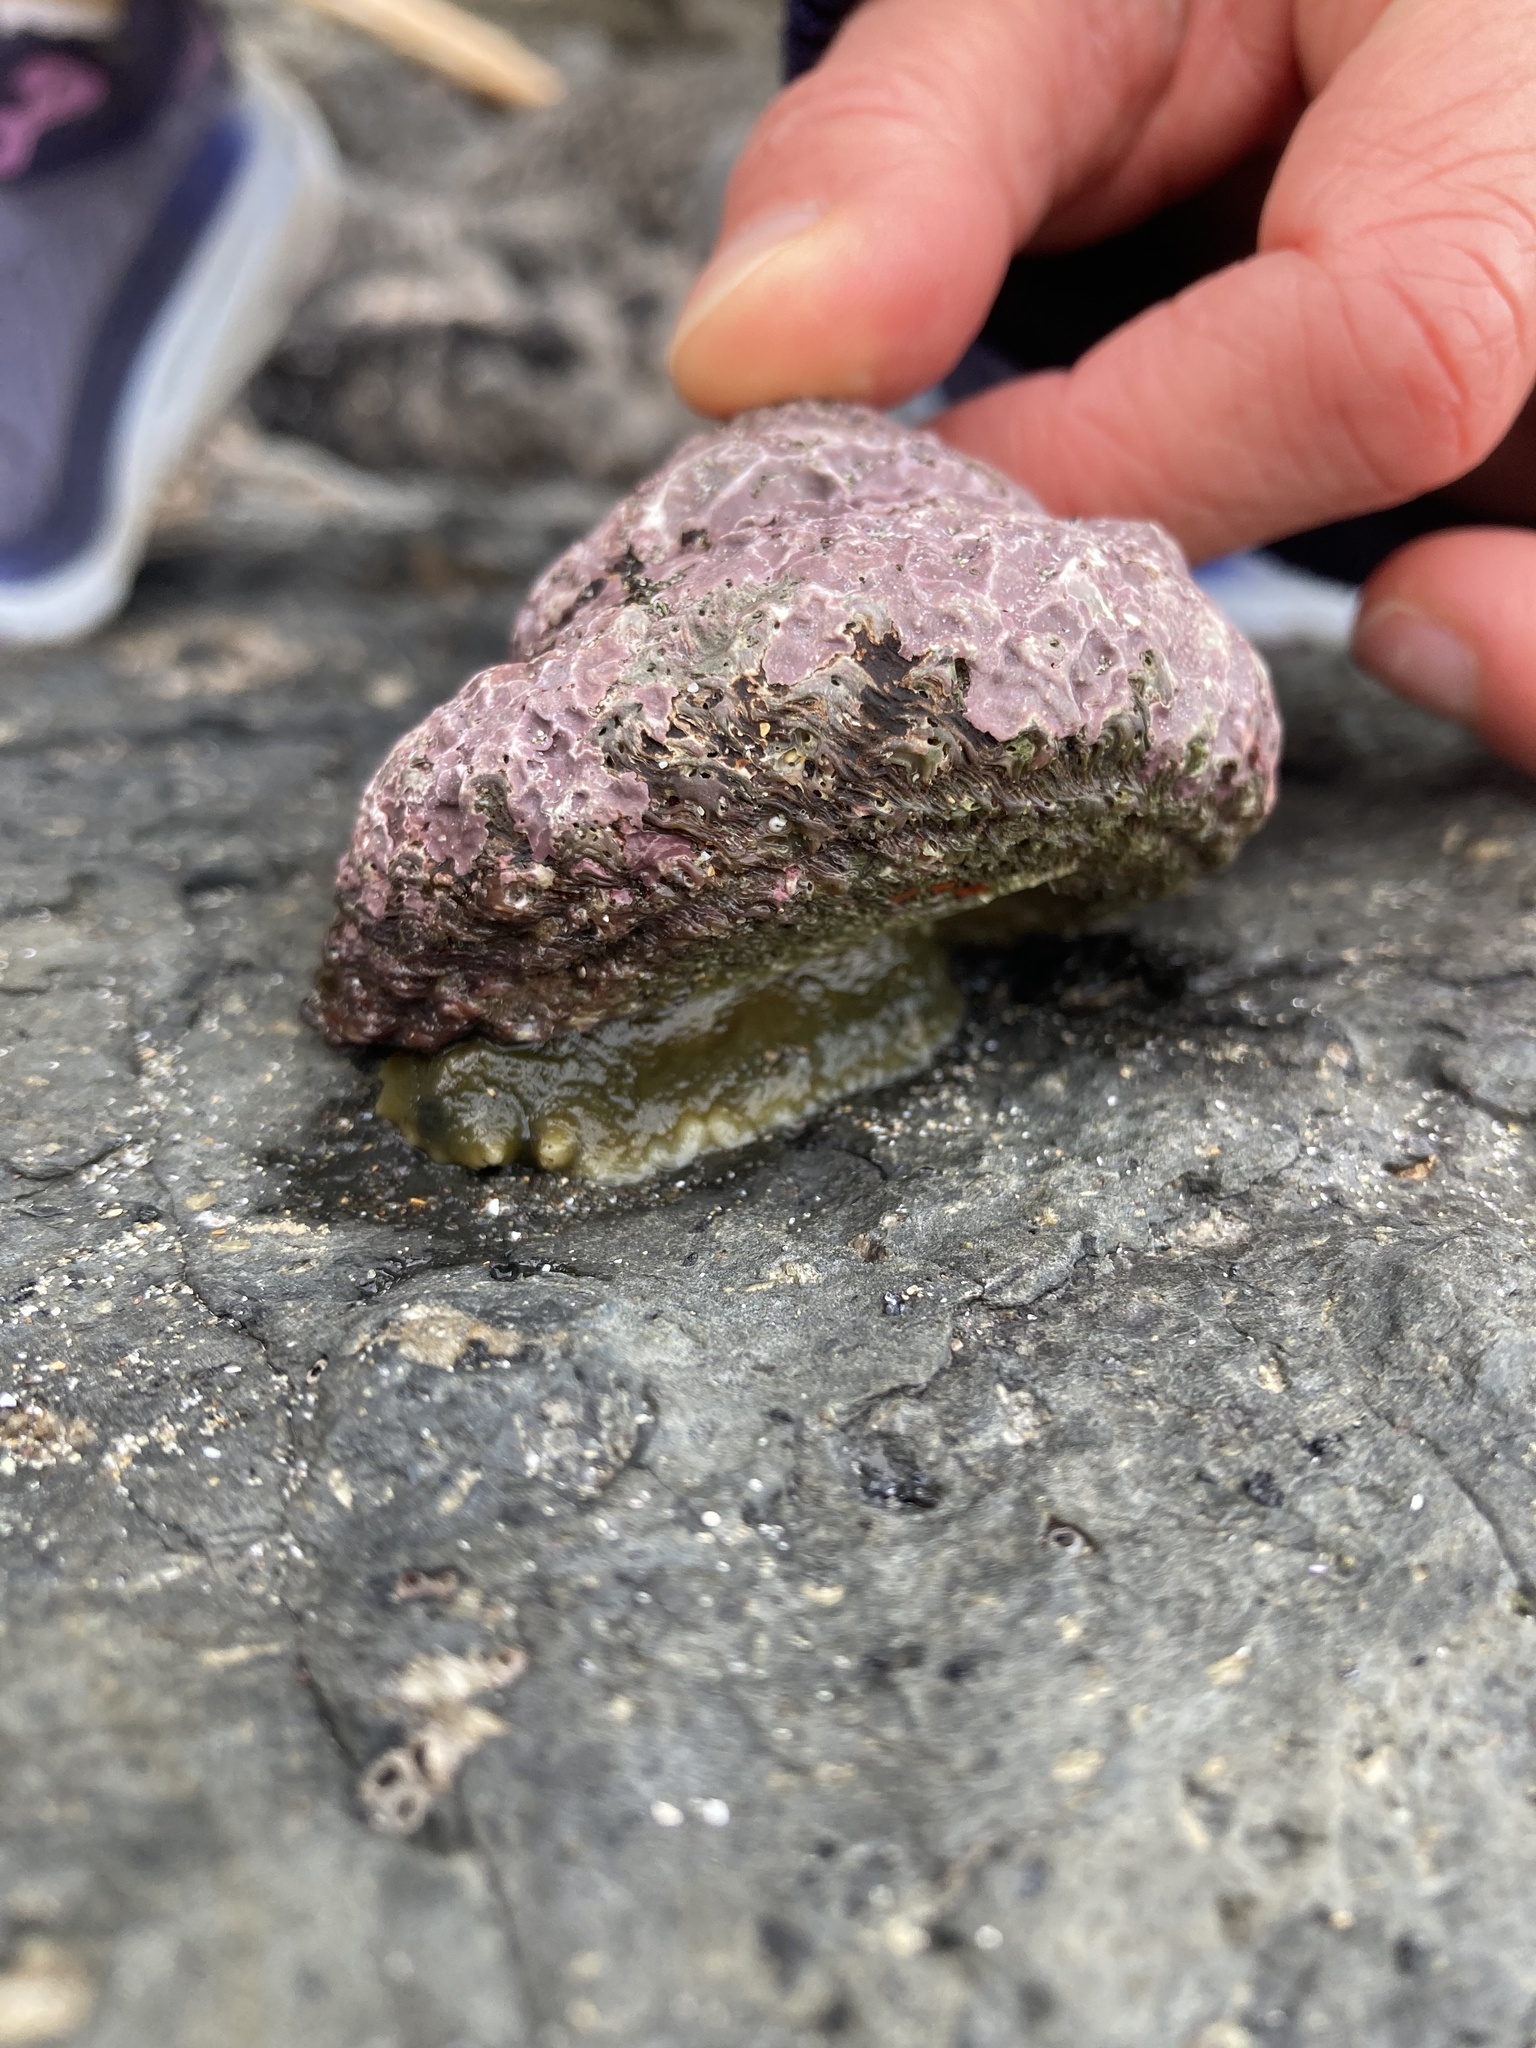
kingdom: Animalia
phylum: Mollusca
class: Gastropoda
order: Trochida
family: Turbinidae
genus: Cookia
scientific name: Cookia sulcata
